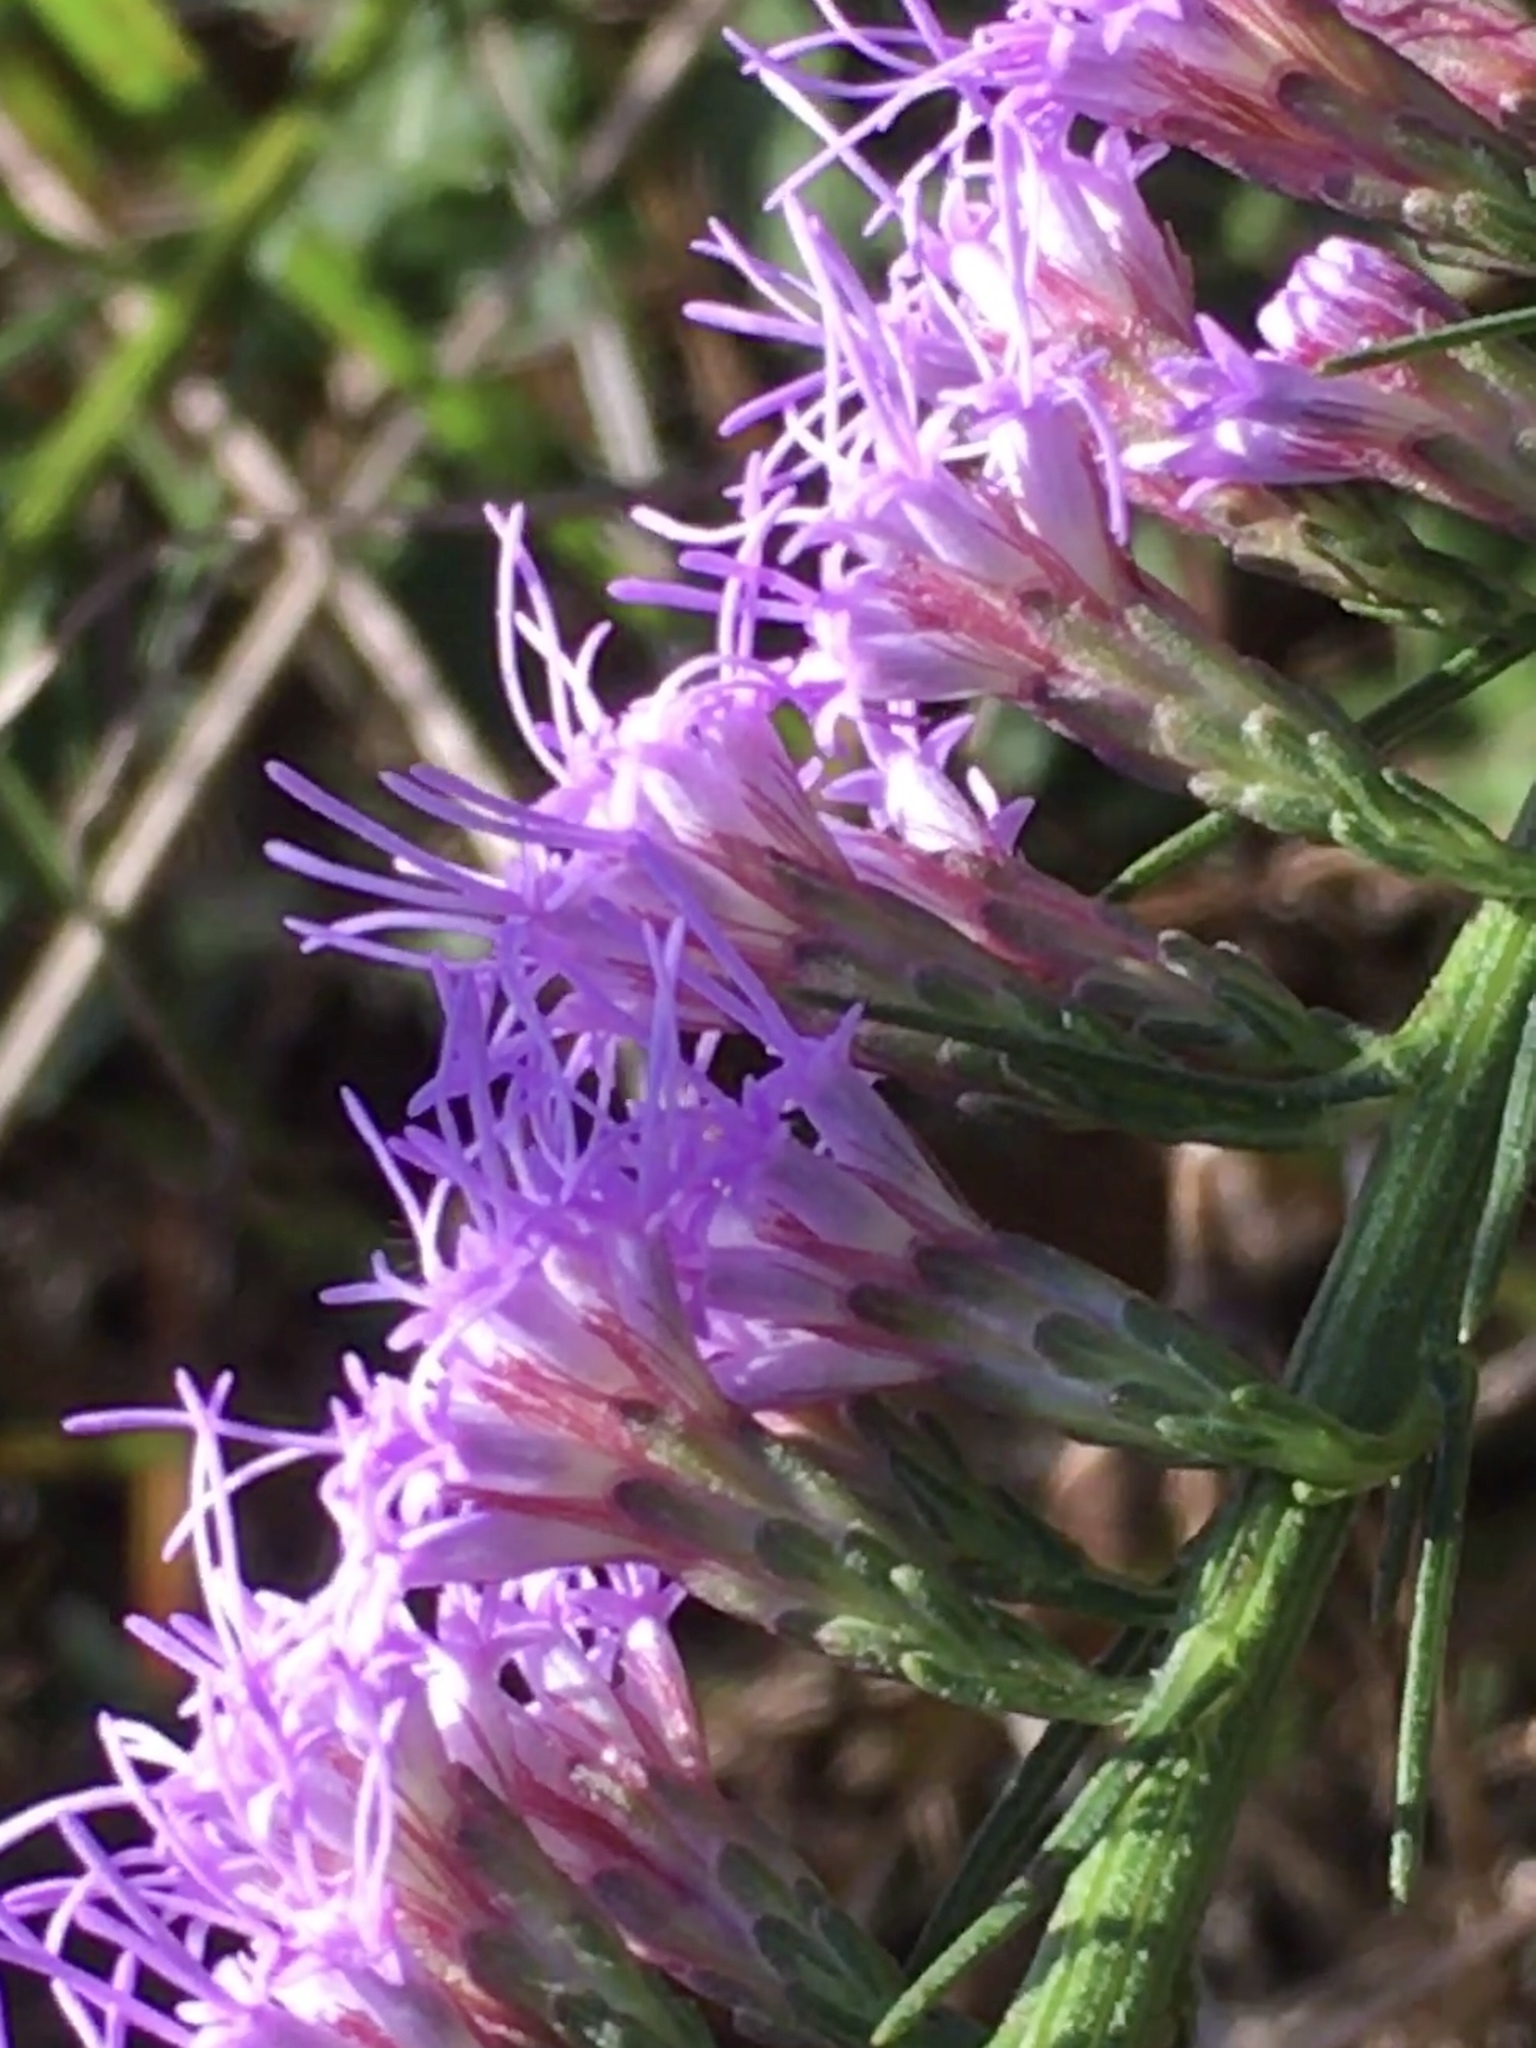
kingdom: Plantae
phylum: Tracheophyta
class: Magnoliopsida
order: Asterales
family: Asteraceae
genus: Liatris
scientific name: Liatris pilosa
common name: Grass-leaf gayfeather
